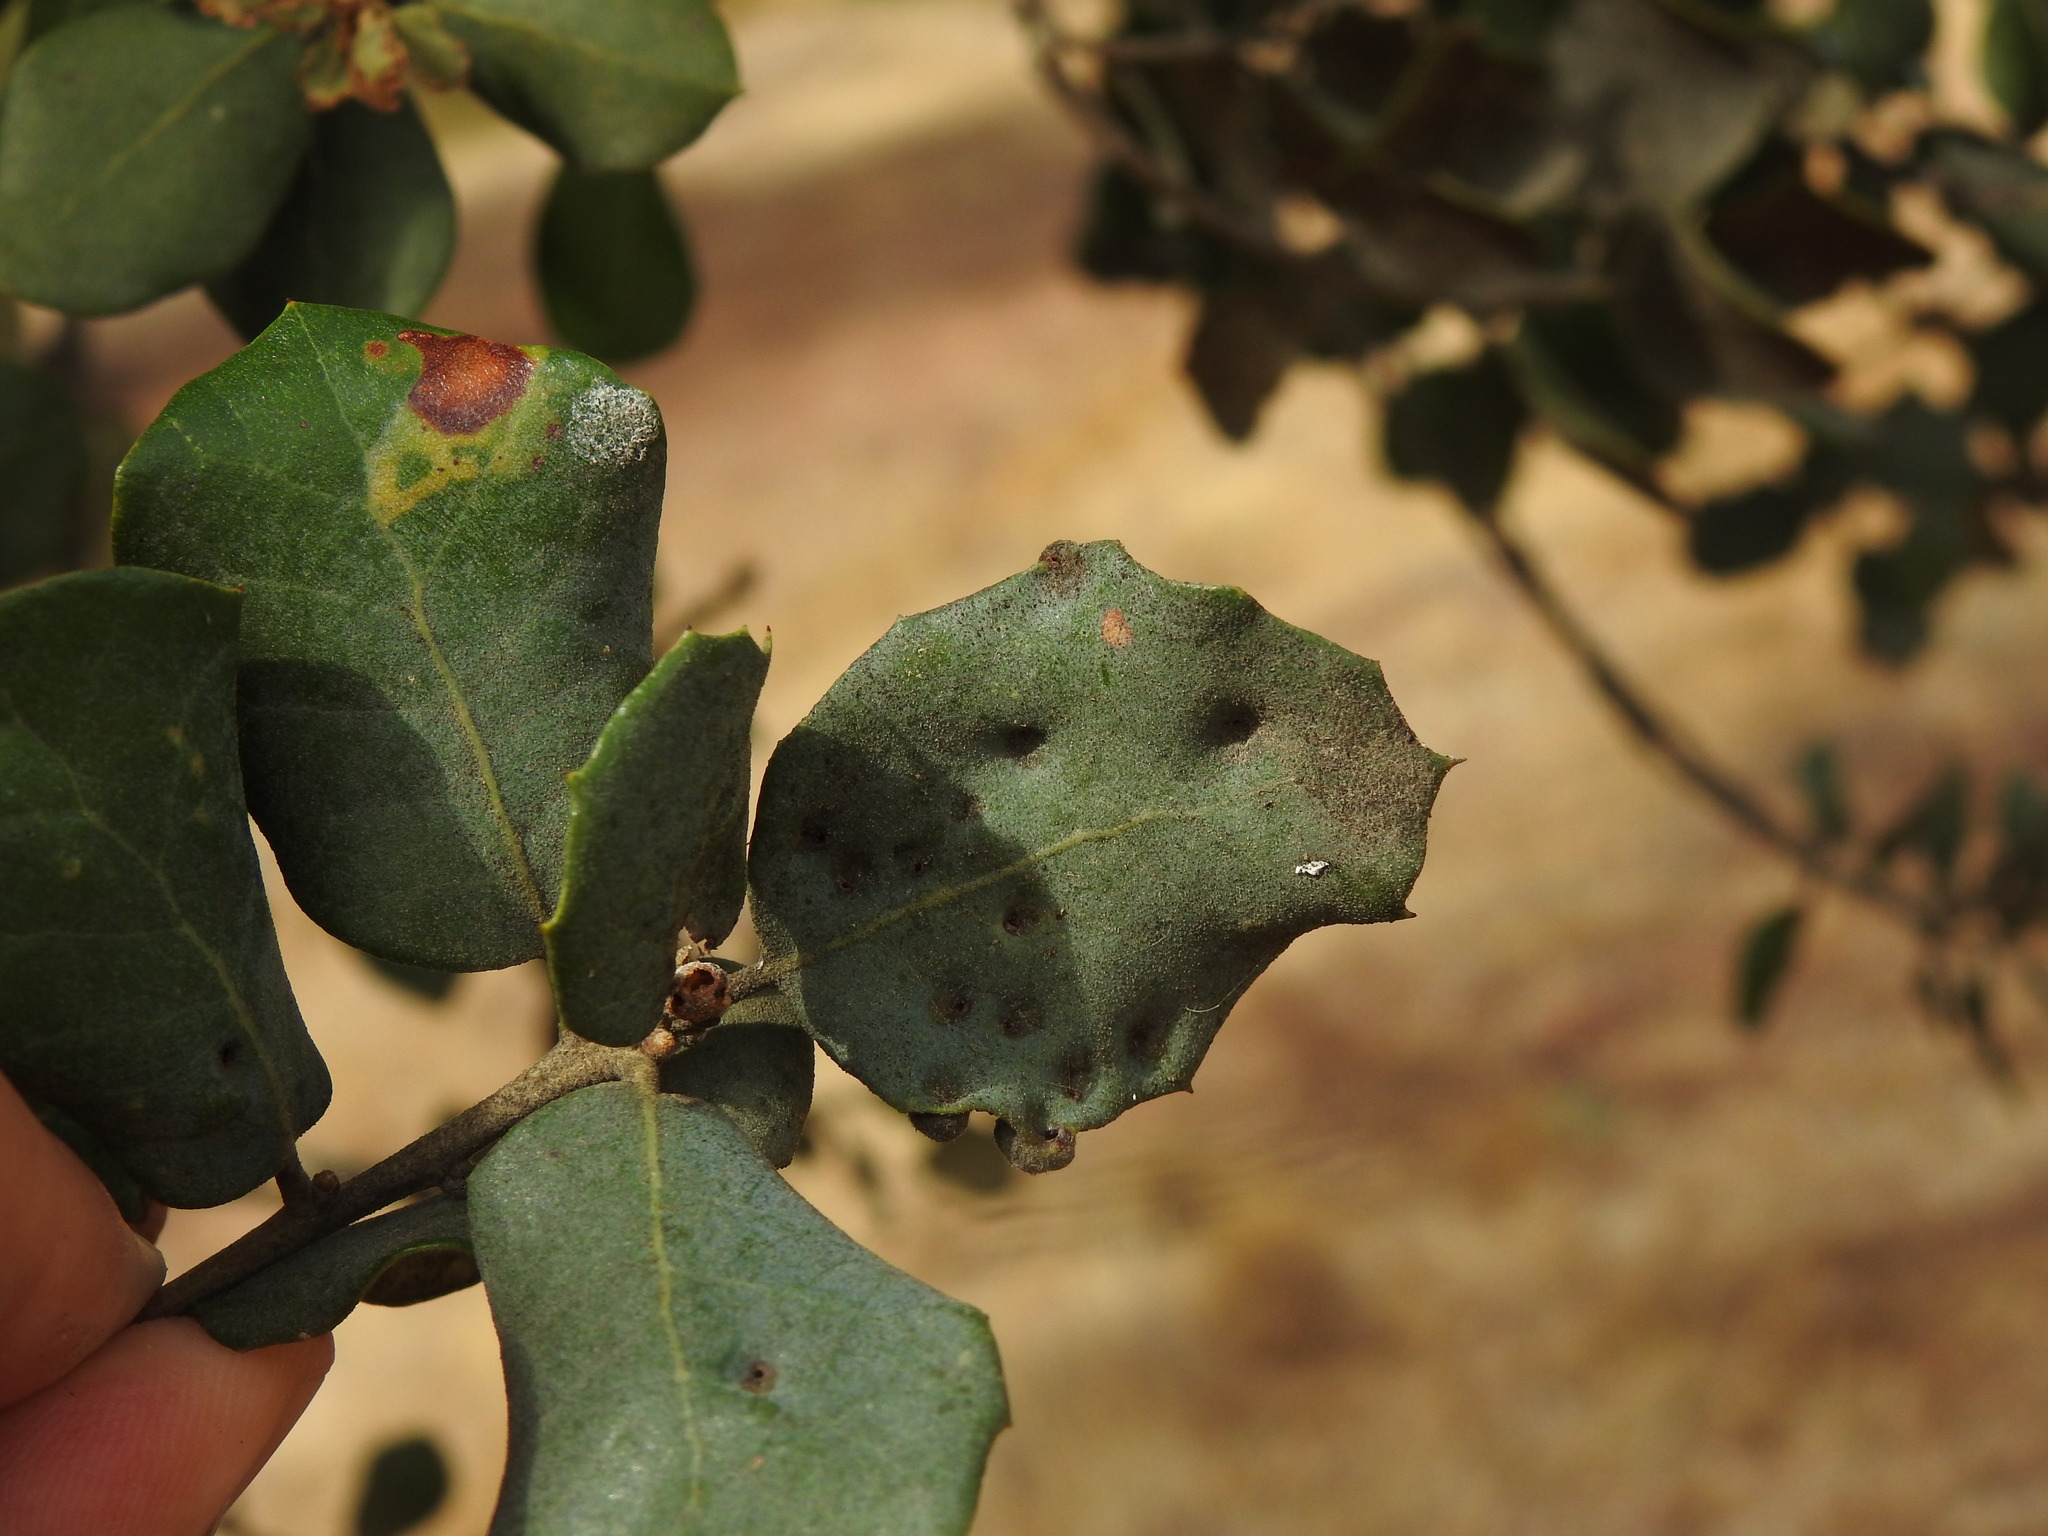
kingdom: Animalia
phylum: Arthropoda
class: Insecta
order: Diptera
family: Cecidomyiidae
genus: Dryomyia
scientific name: Dryomyia lichtensteinii
